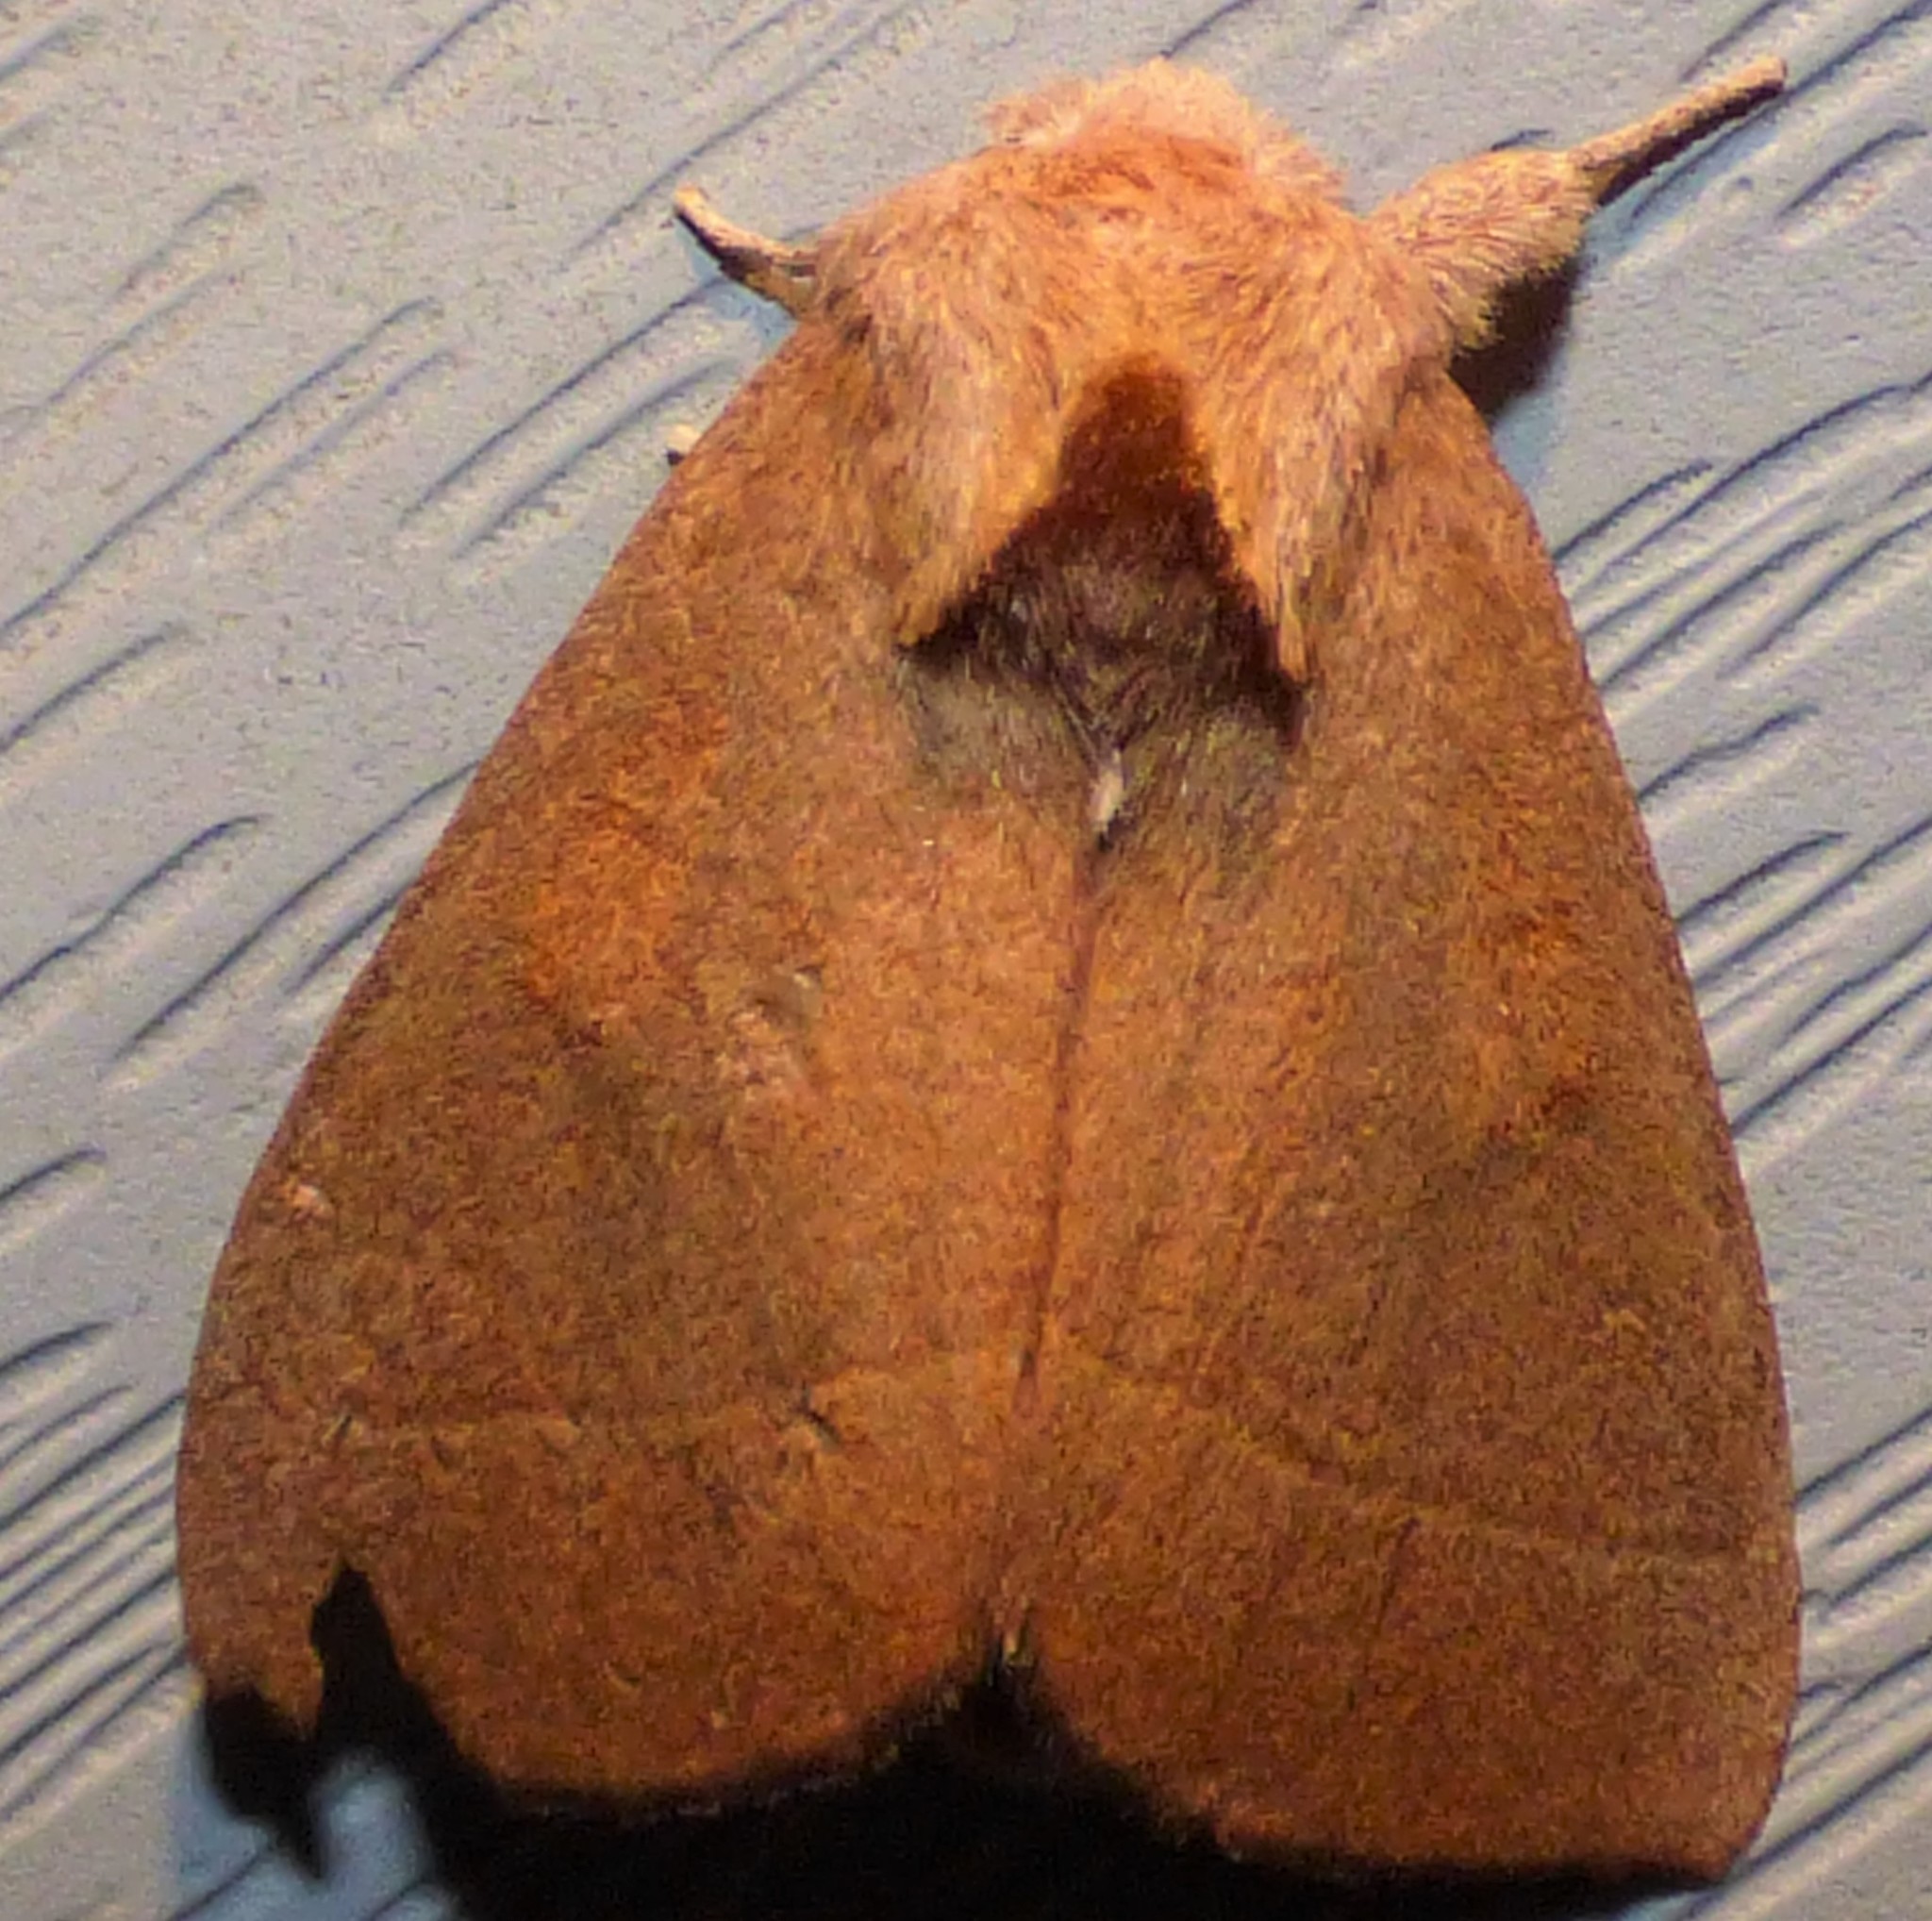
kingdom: Animalia
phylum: Arthropoda
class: Insecta
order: Lepidoptera
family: Notodontidae
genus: Nadata
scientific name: Nadata gibbosa
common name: White-dotted prominent
